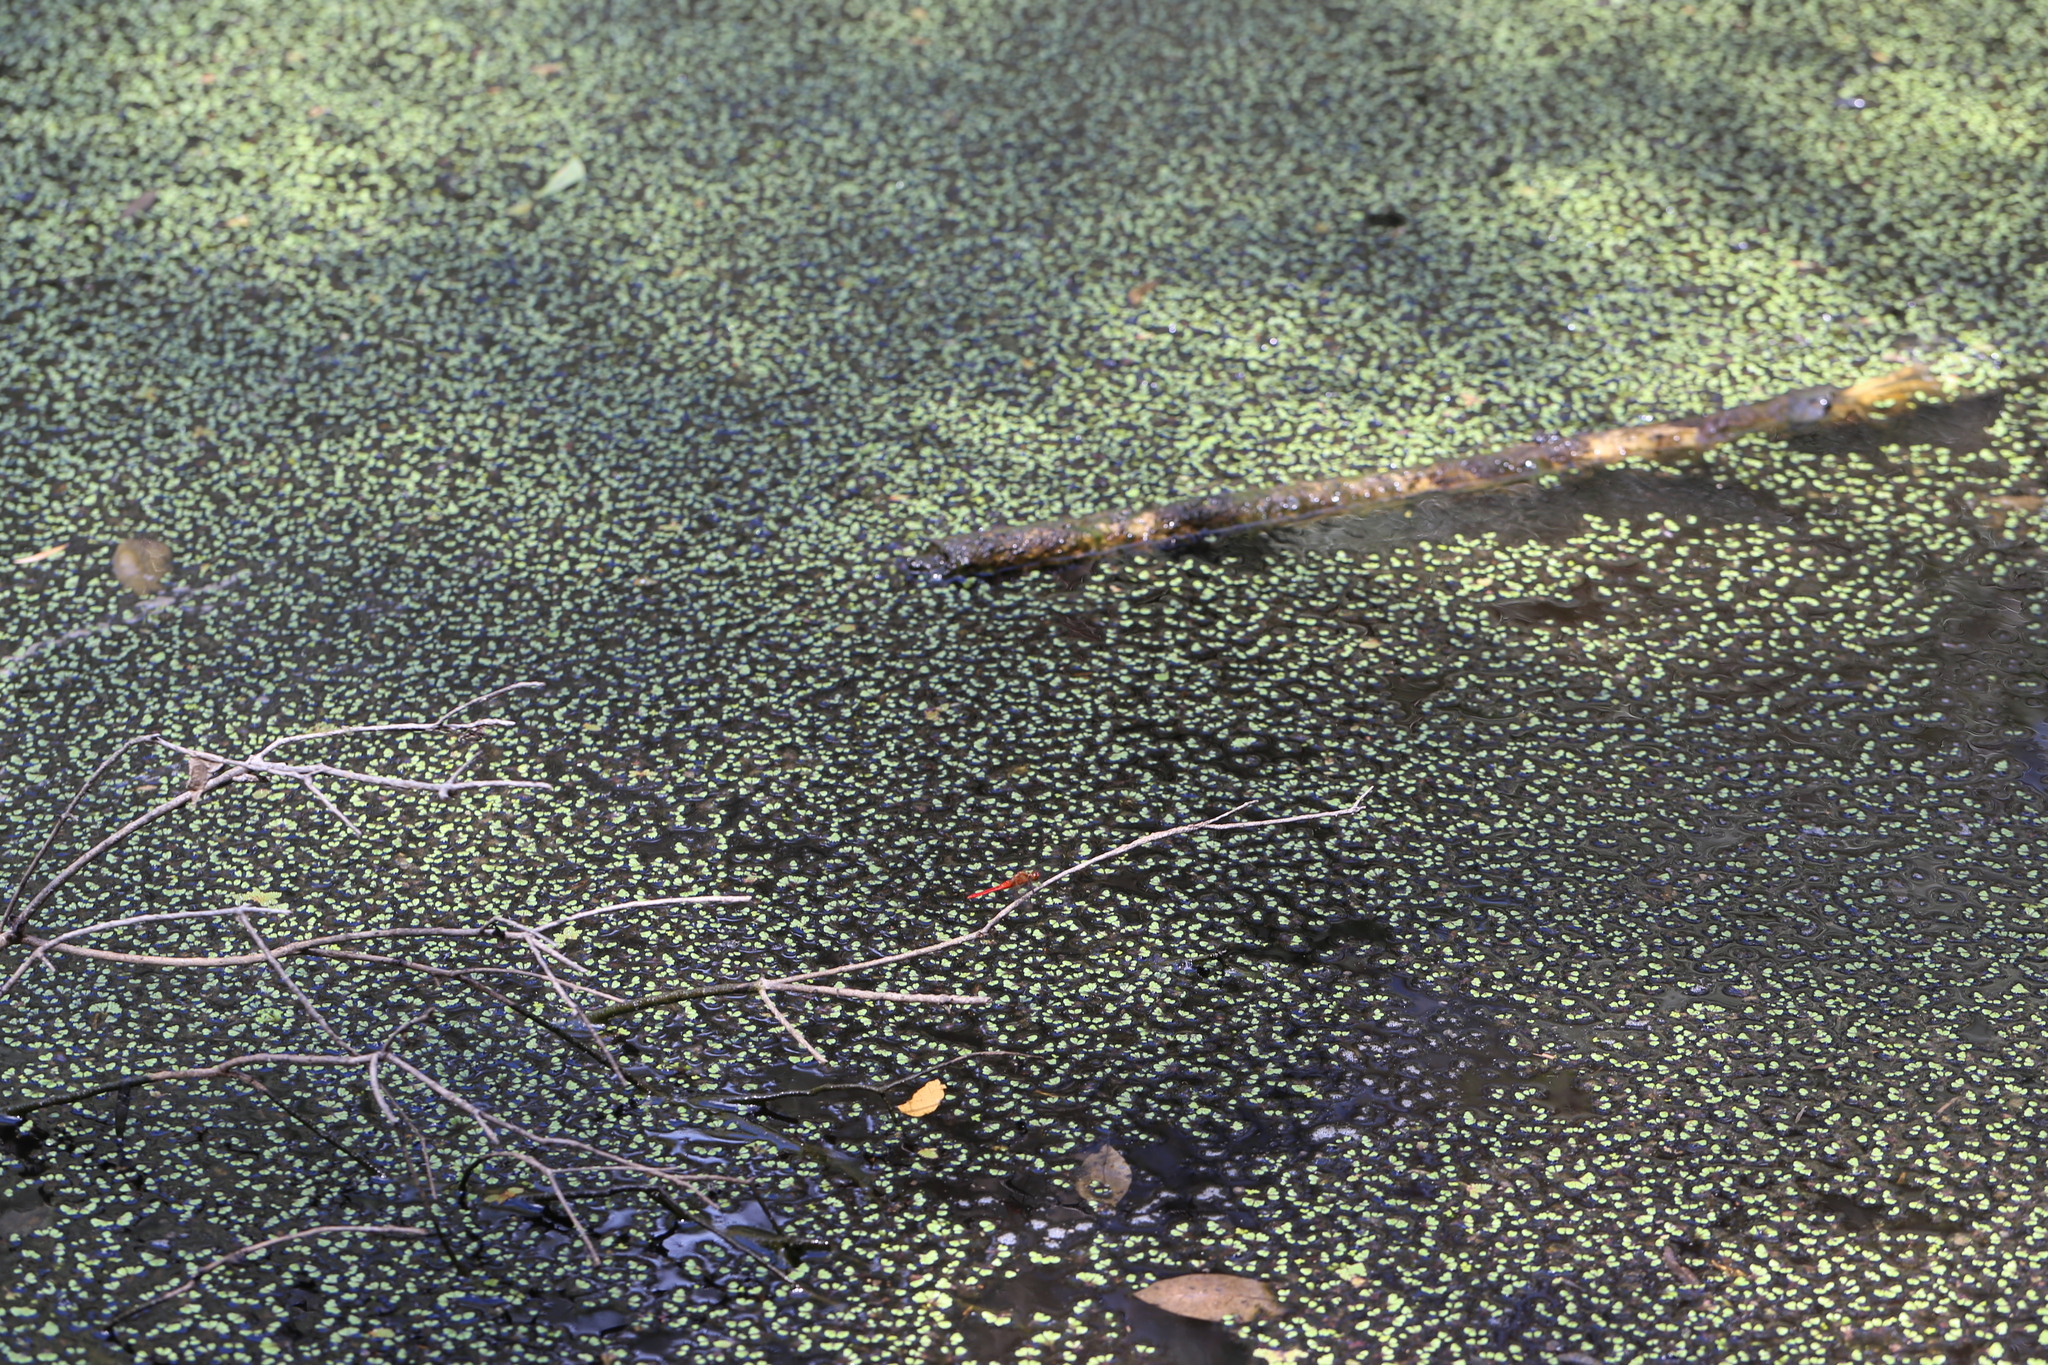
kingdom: Animalia
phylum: Arthropoda
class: Insecta
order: Odonata
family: Libellulidae
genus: Rhodothemis
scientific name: Rhodothemis lieftincki
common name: Red arrow
